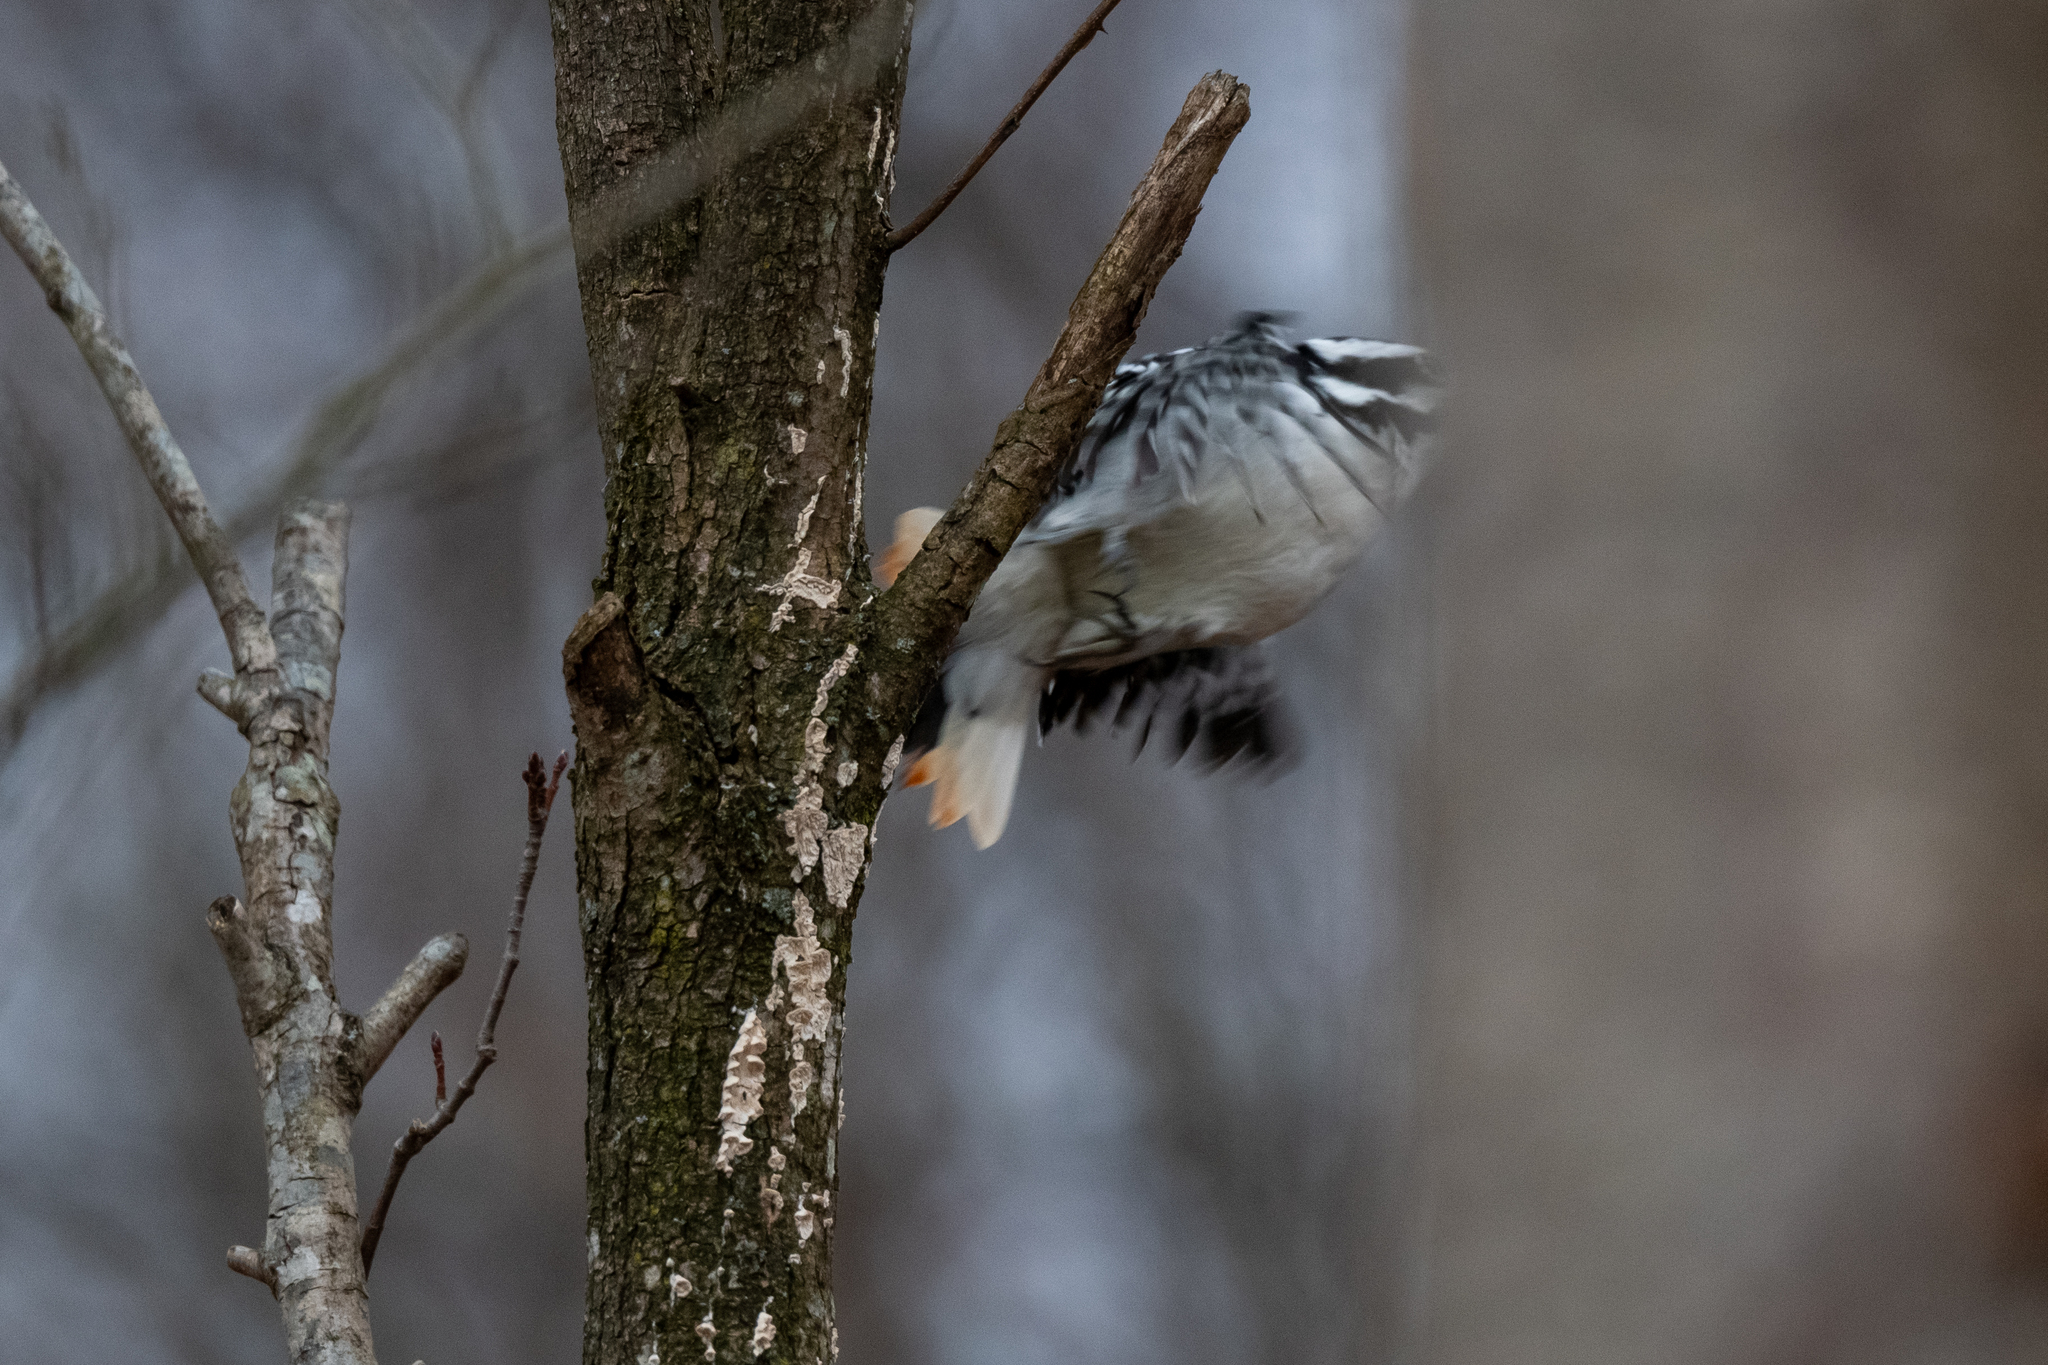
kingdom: Animalia
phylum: Chordata
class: Aves
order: Piciformes
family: Picidae
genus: Leuconotopicus
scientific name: Leuconotopicus villosus
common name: Hairy woodpecker
